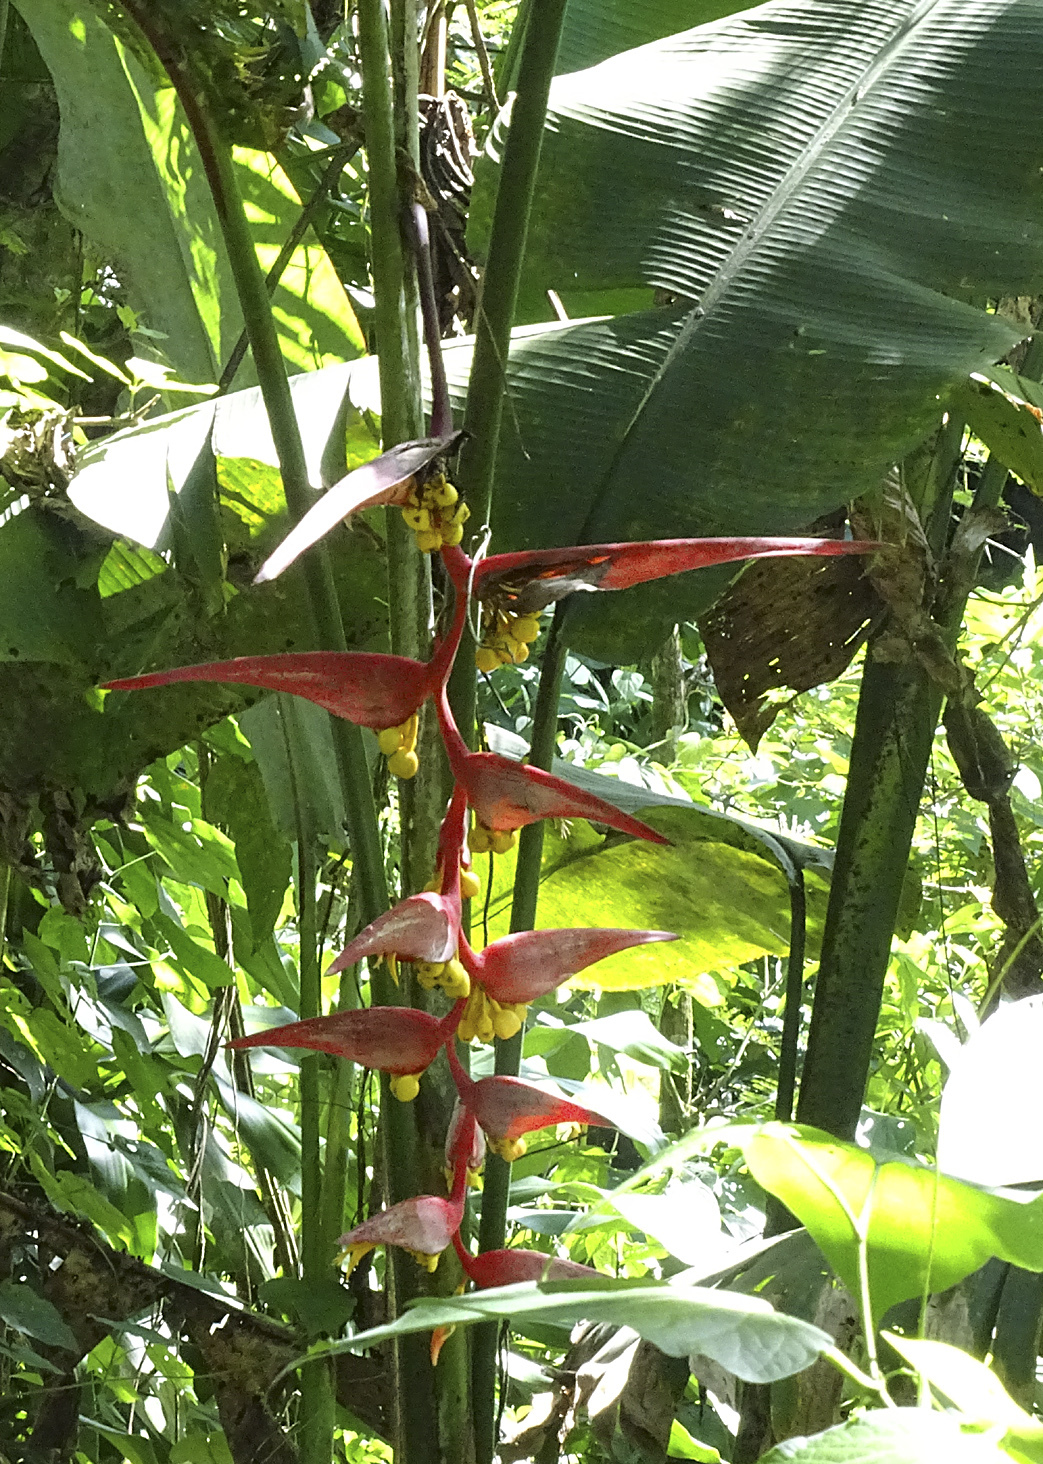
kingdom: Plantae
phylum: Tracheophyta
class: Liliopsida
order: Zingiberales
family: Heliconiaceae
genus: Heliconia
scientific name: Heliconia collinsiana
